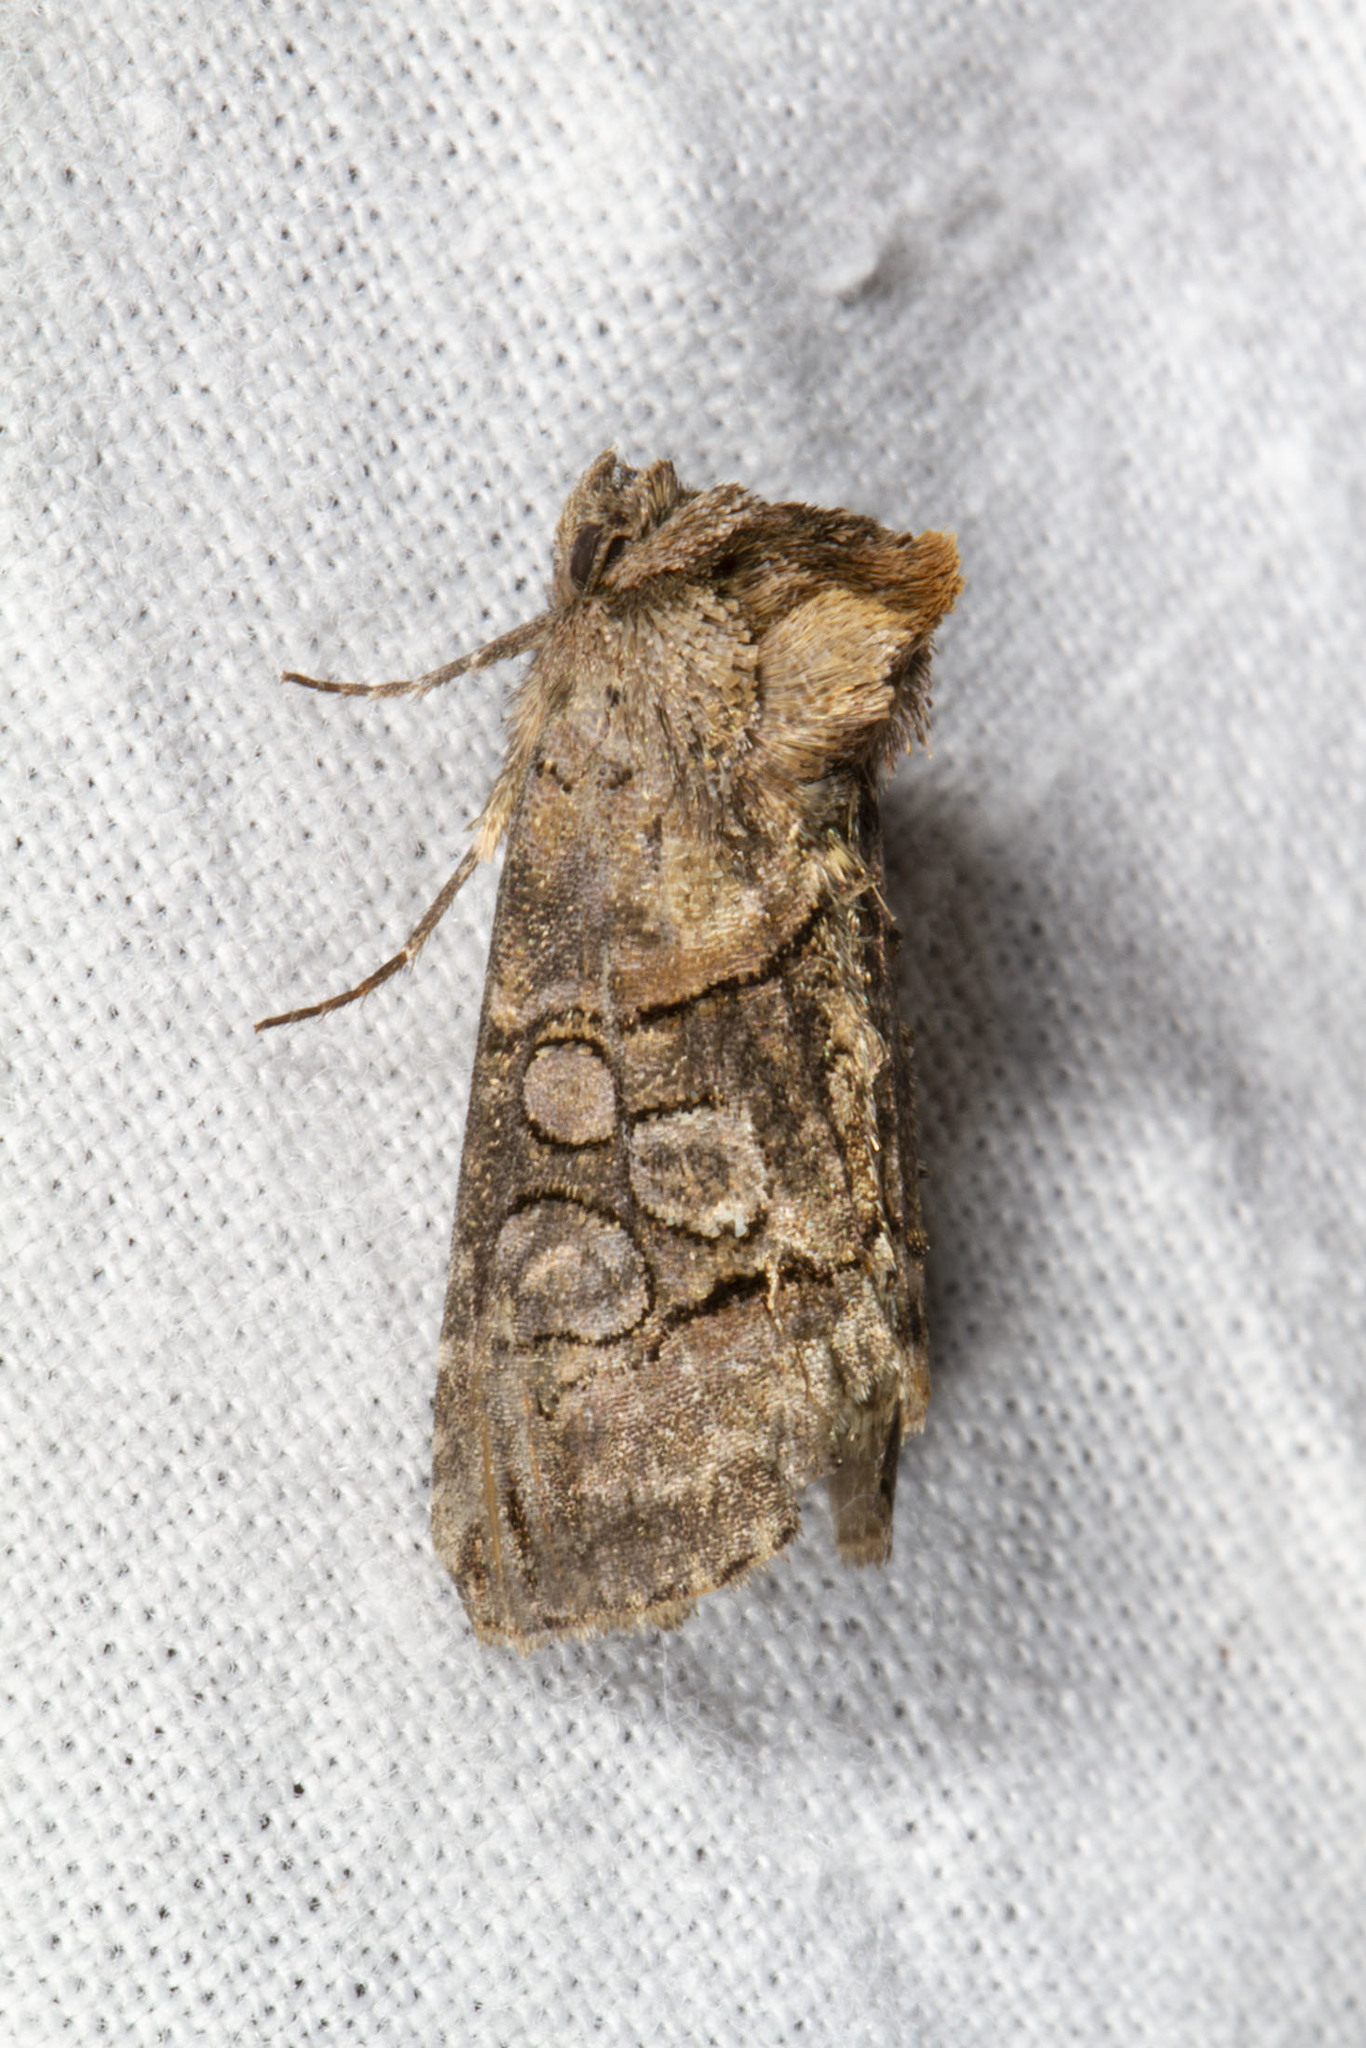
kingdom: Animalia
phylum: Arthropoda
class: Insecta
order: Lepidoptera
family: Noctuidae
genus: Abrostola
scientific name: Abrostola urentis
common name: Spectacled nettle moth
